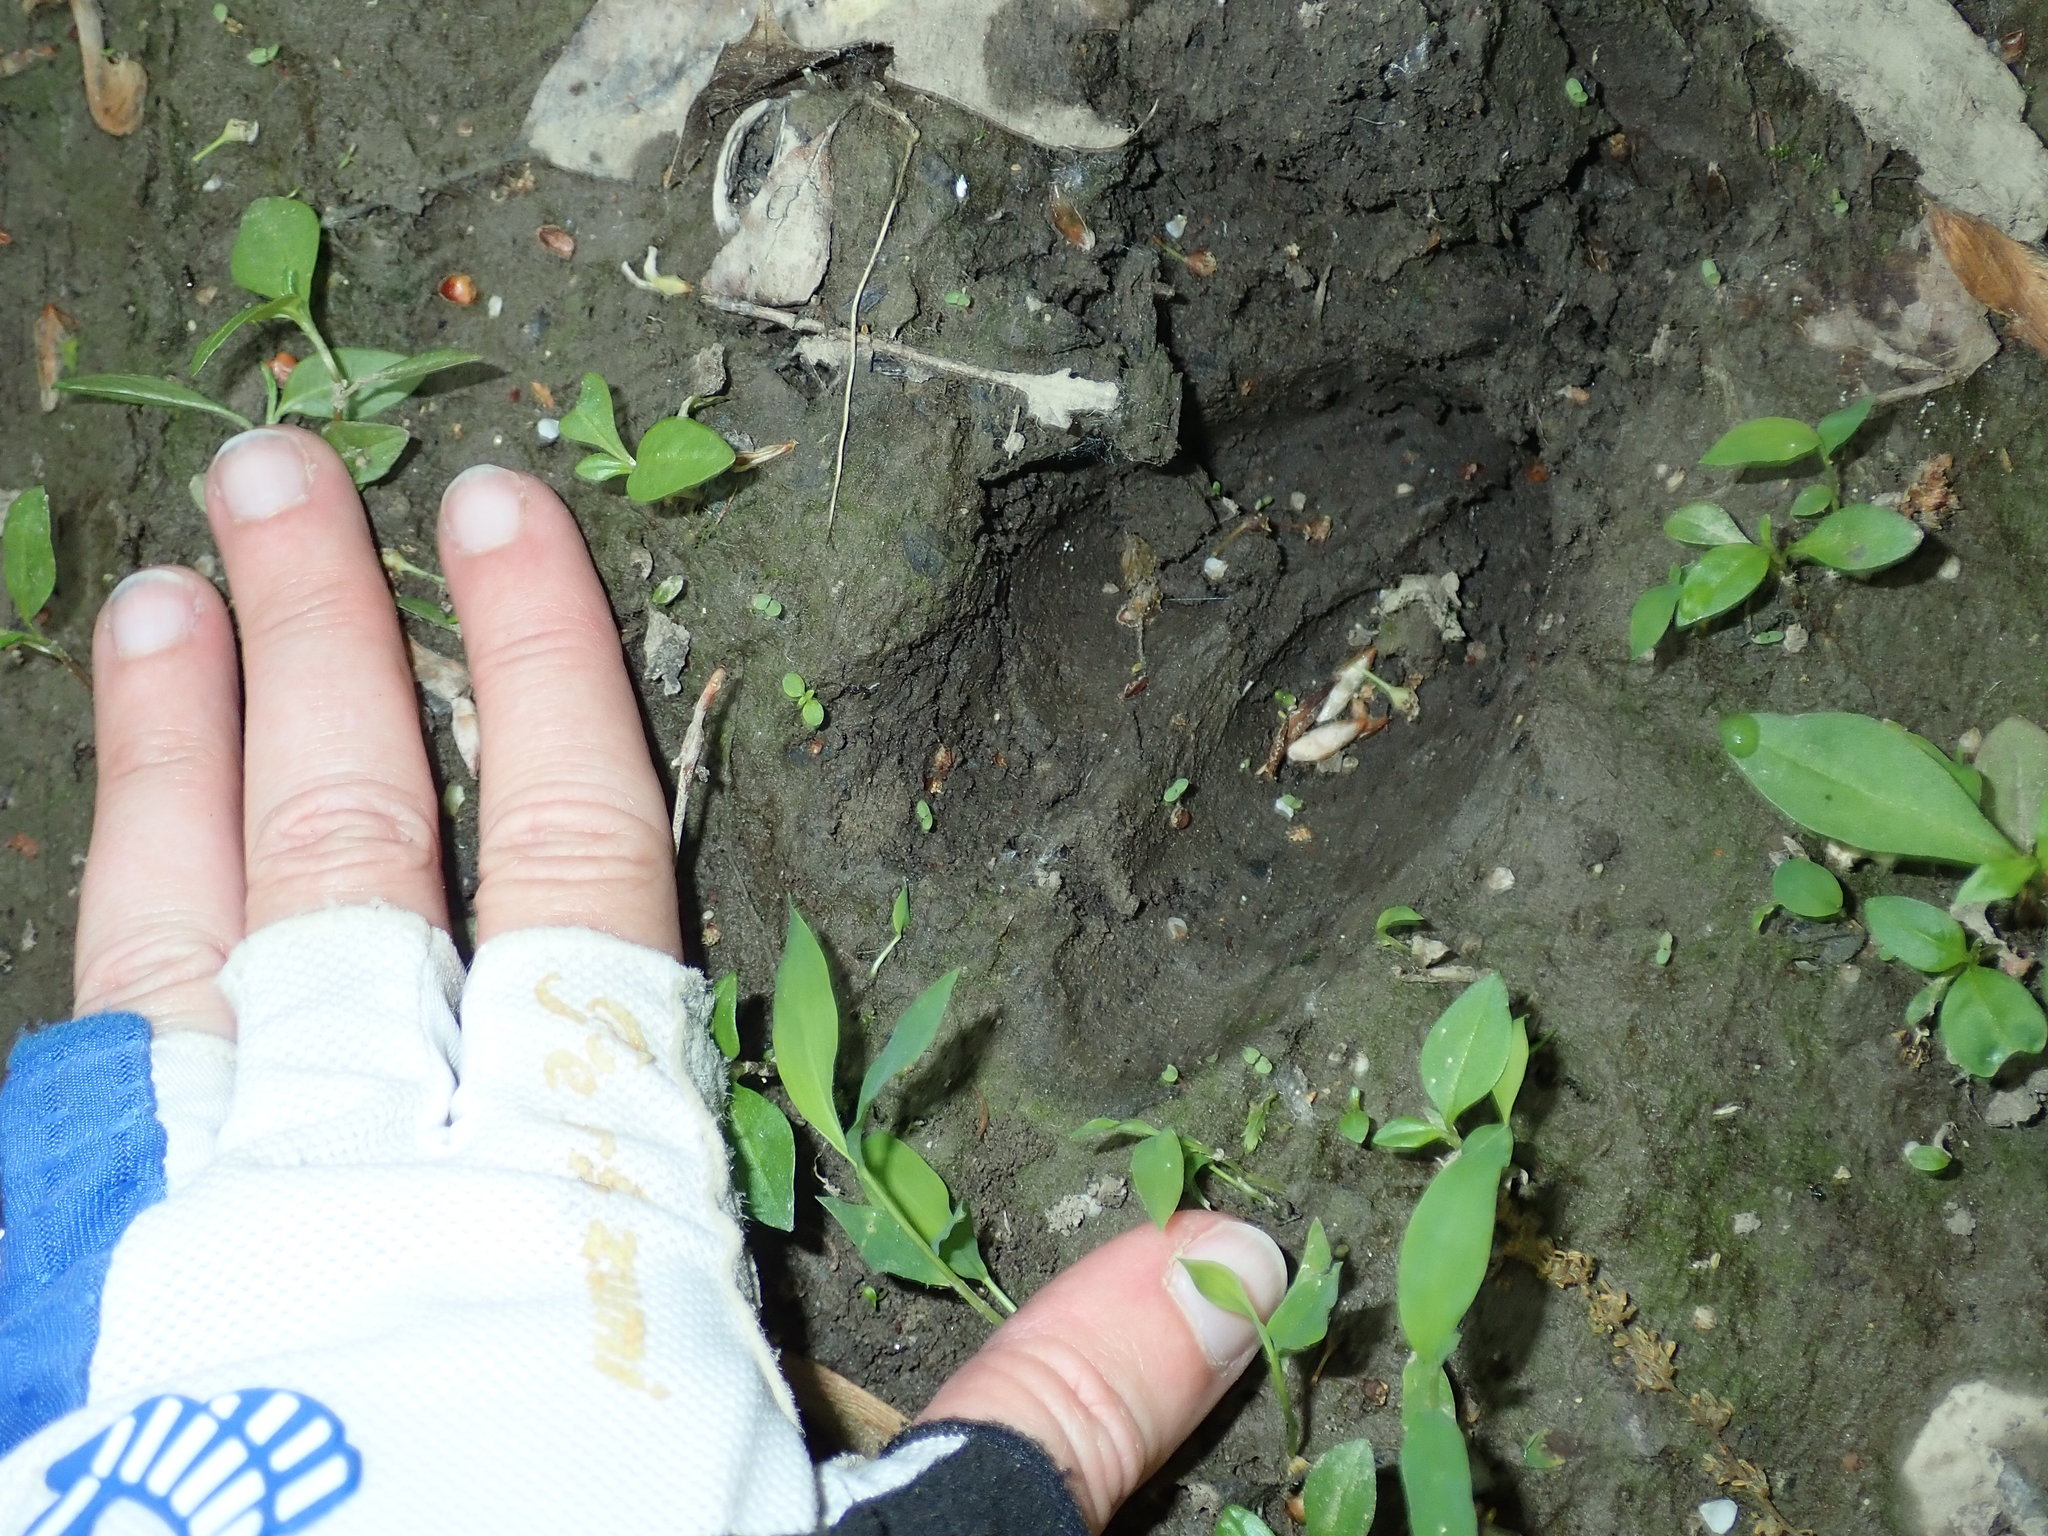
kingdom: Animalia
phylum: Chordata
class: Mammalia
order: Artiodactyla
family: Cervidae
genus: Odocoileus
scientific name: Odocoileus virginianus
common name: White-tailed deer
